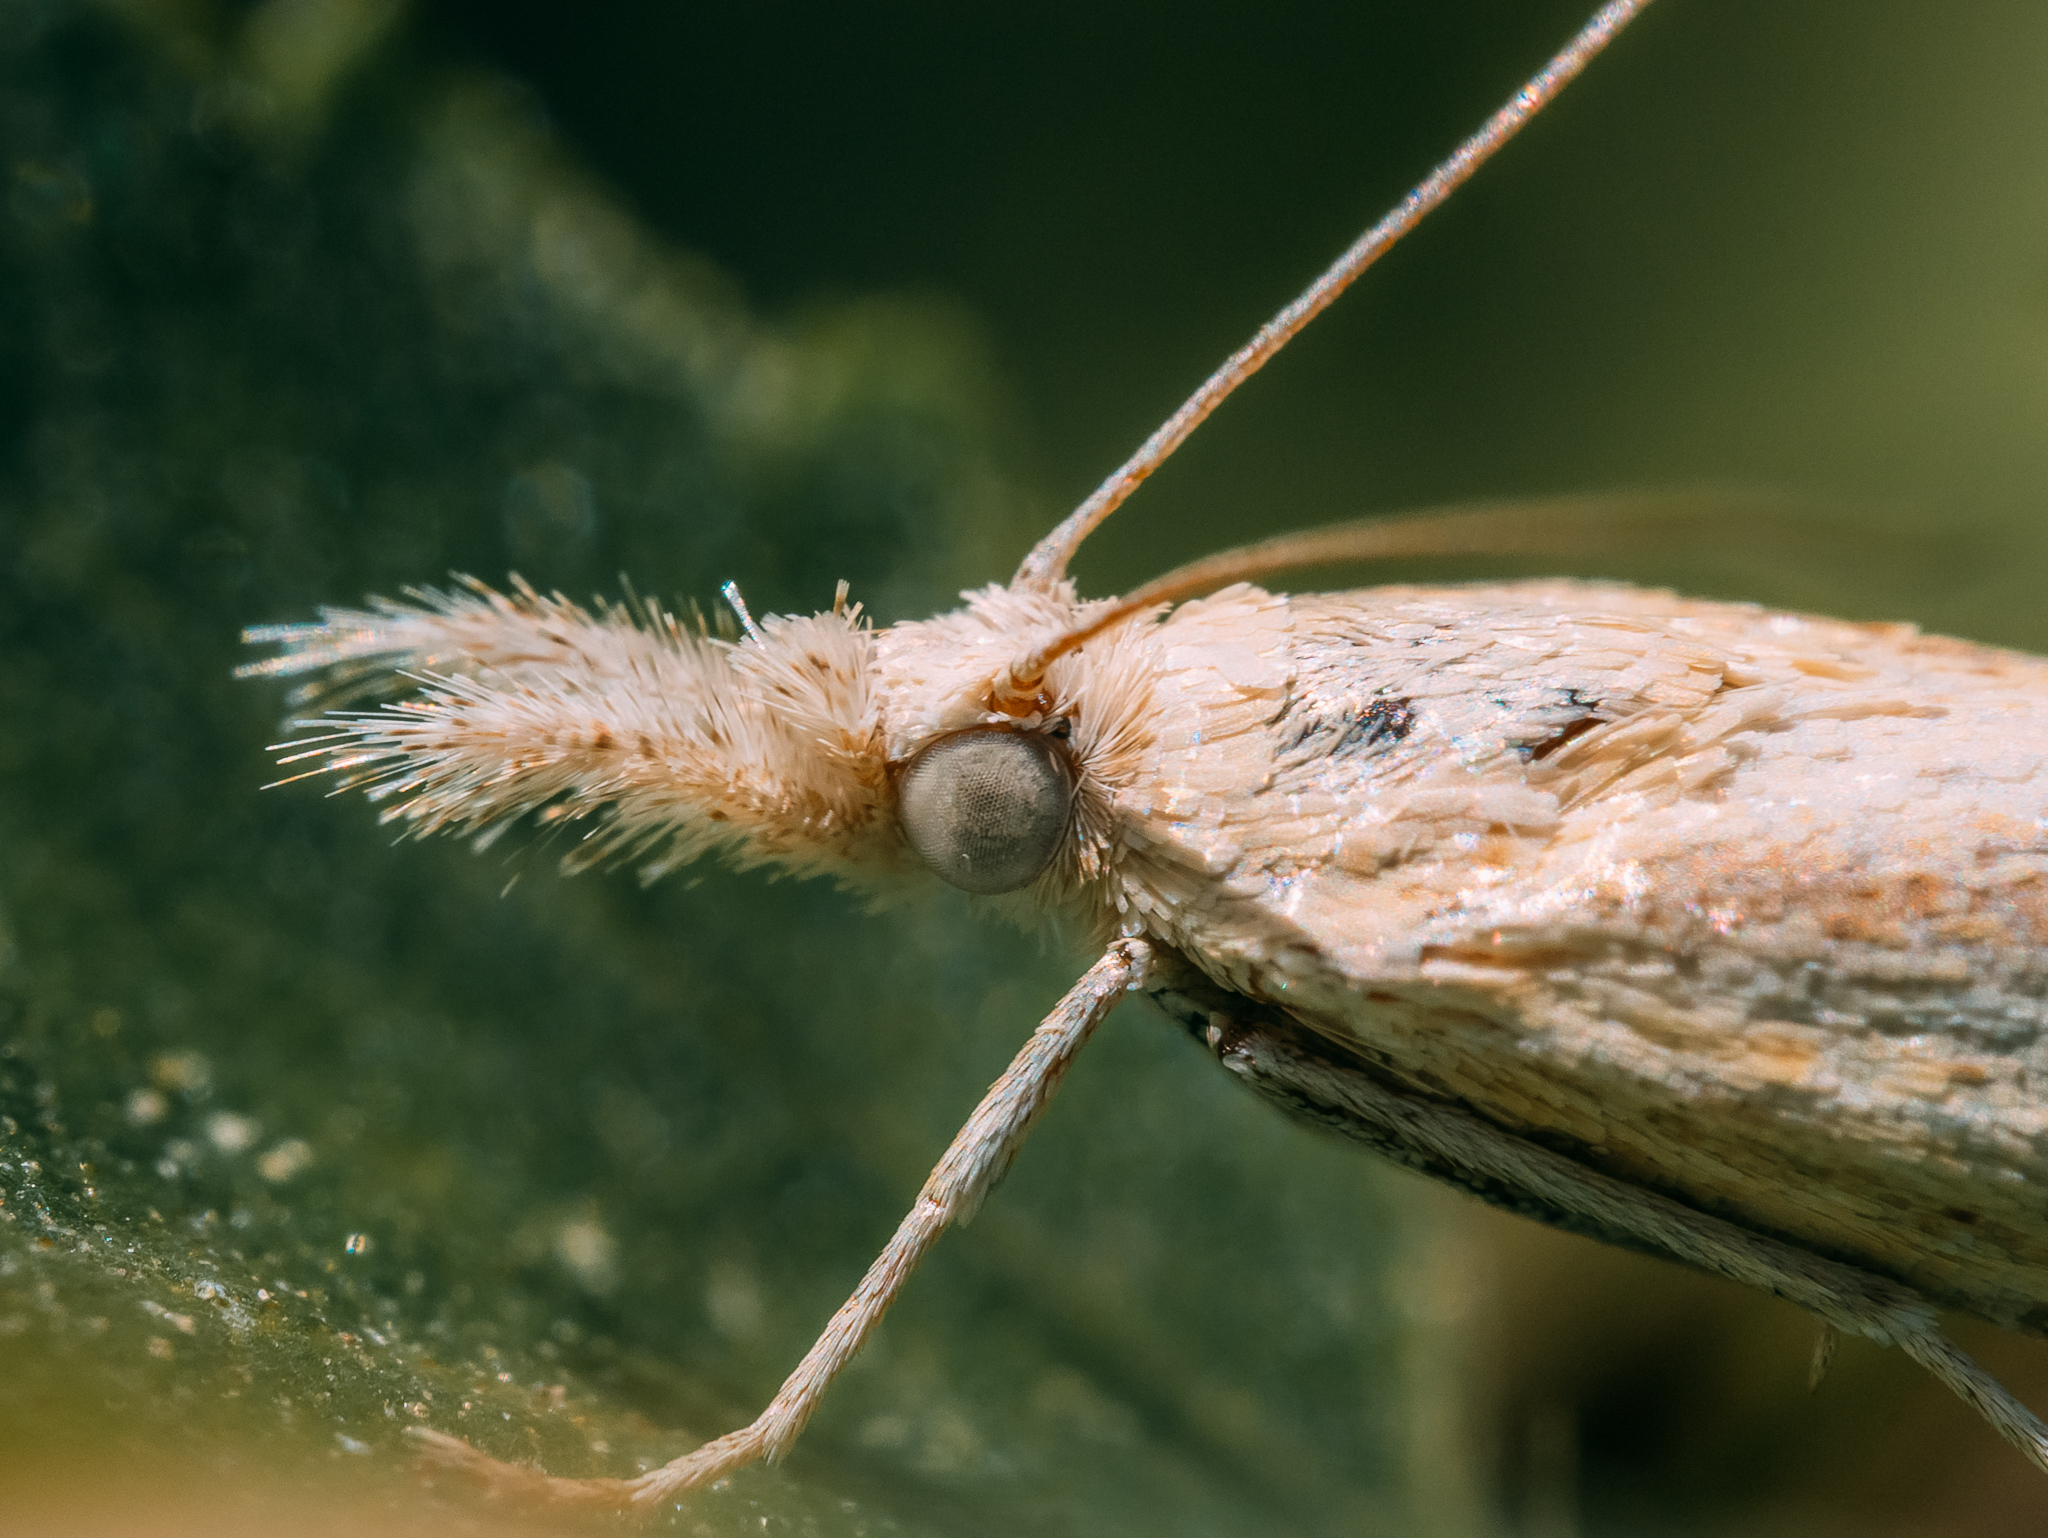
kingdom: Animalia
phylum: Arthropoda
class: Insecta
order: Lepidoptera
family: Crambidae
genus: Agriphila
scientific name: Agriphila inquinatella
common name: Barred grass-veneer
